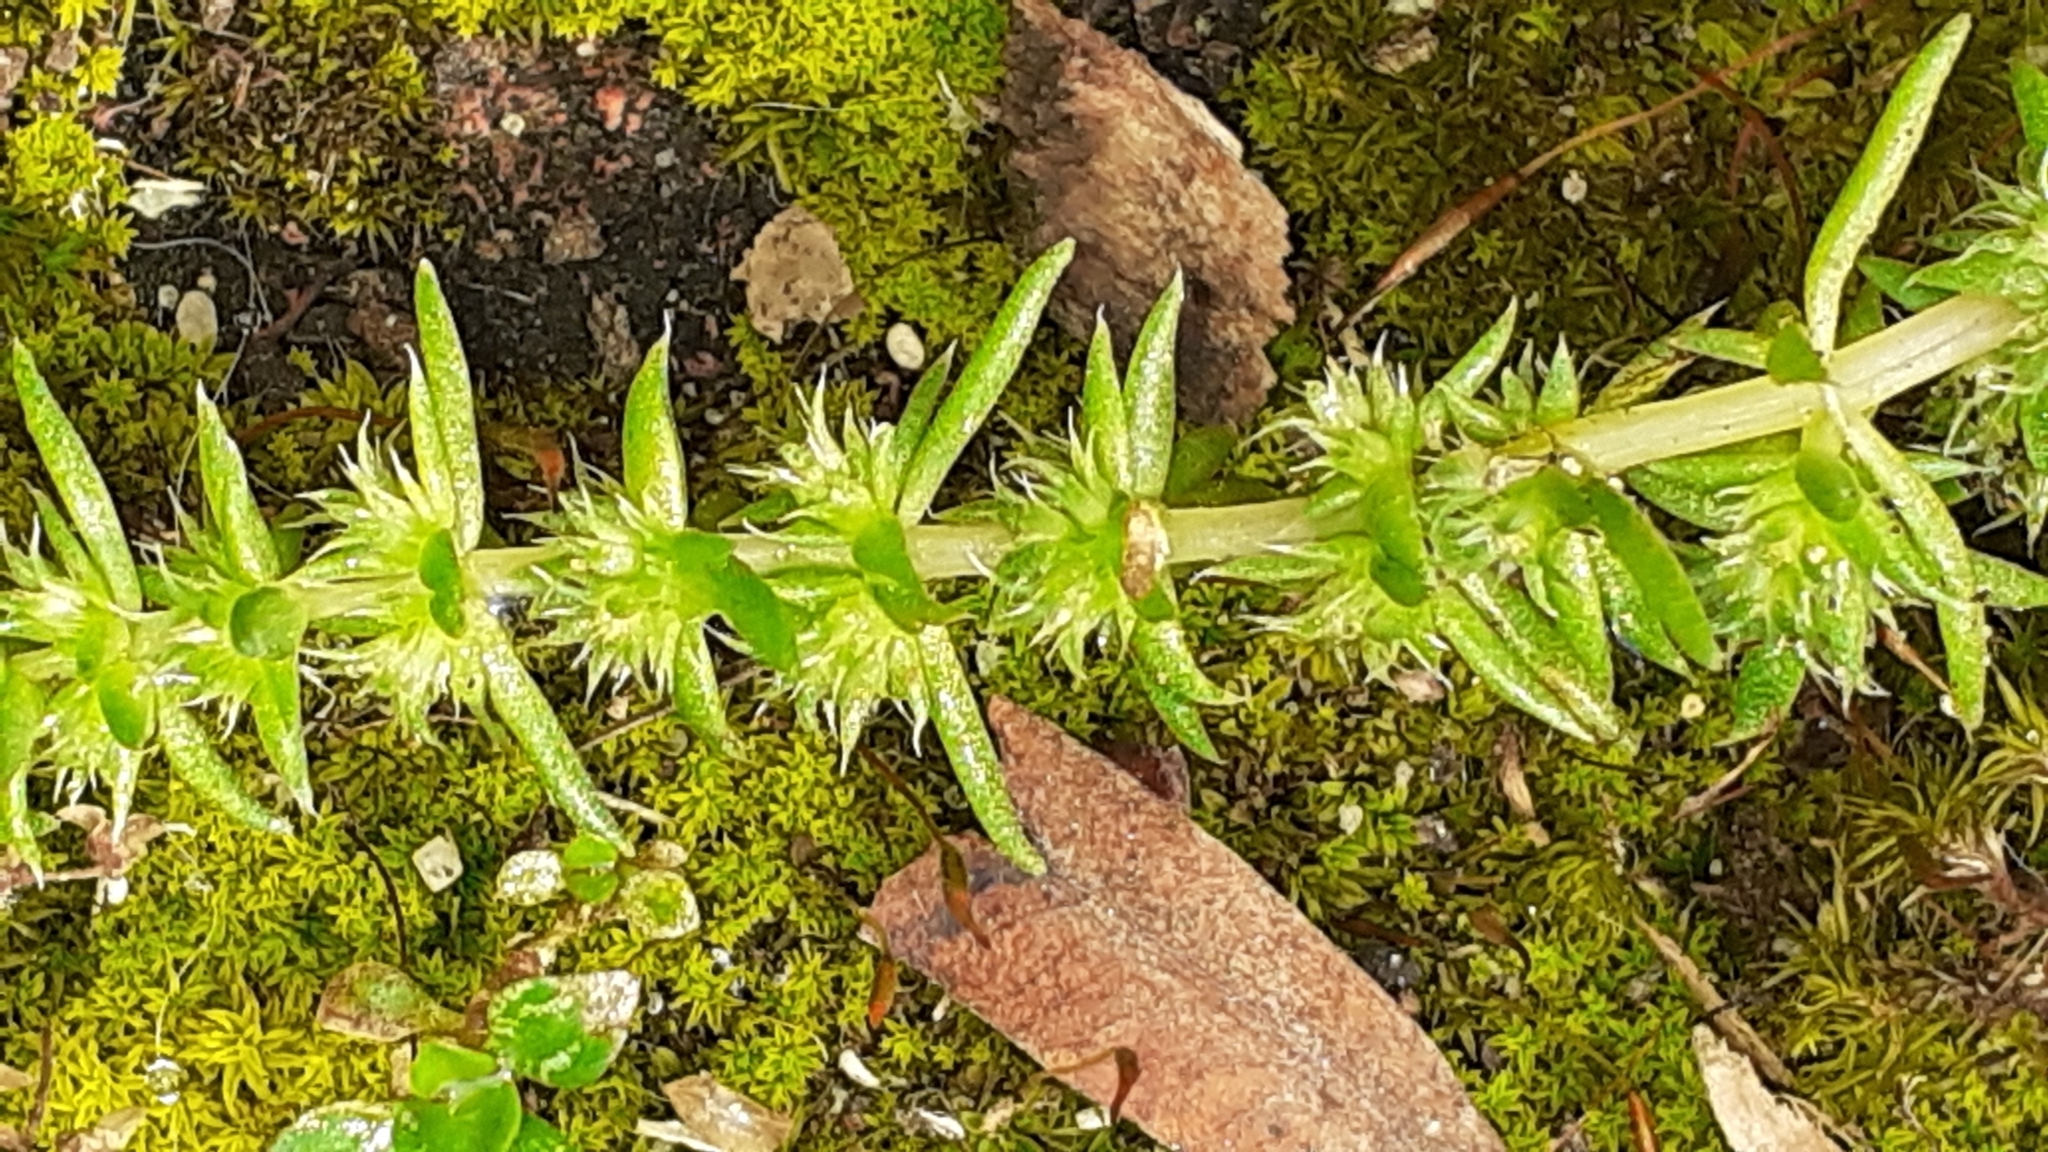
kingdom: Plantae
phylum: Tracheophyta
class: Magnoliopsida
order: Saxifragales
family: Crassulaceae
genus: Crassula
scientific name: Crassula campestris
